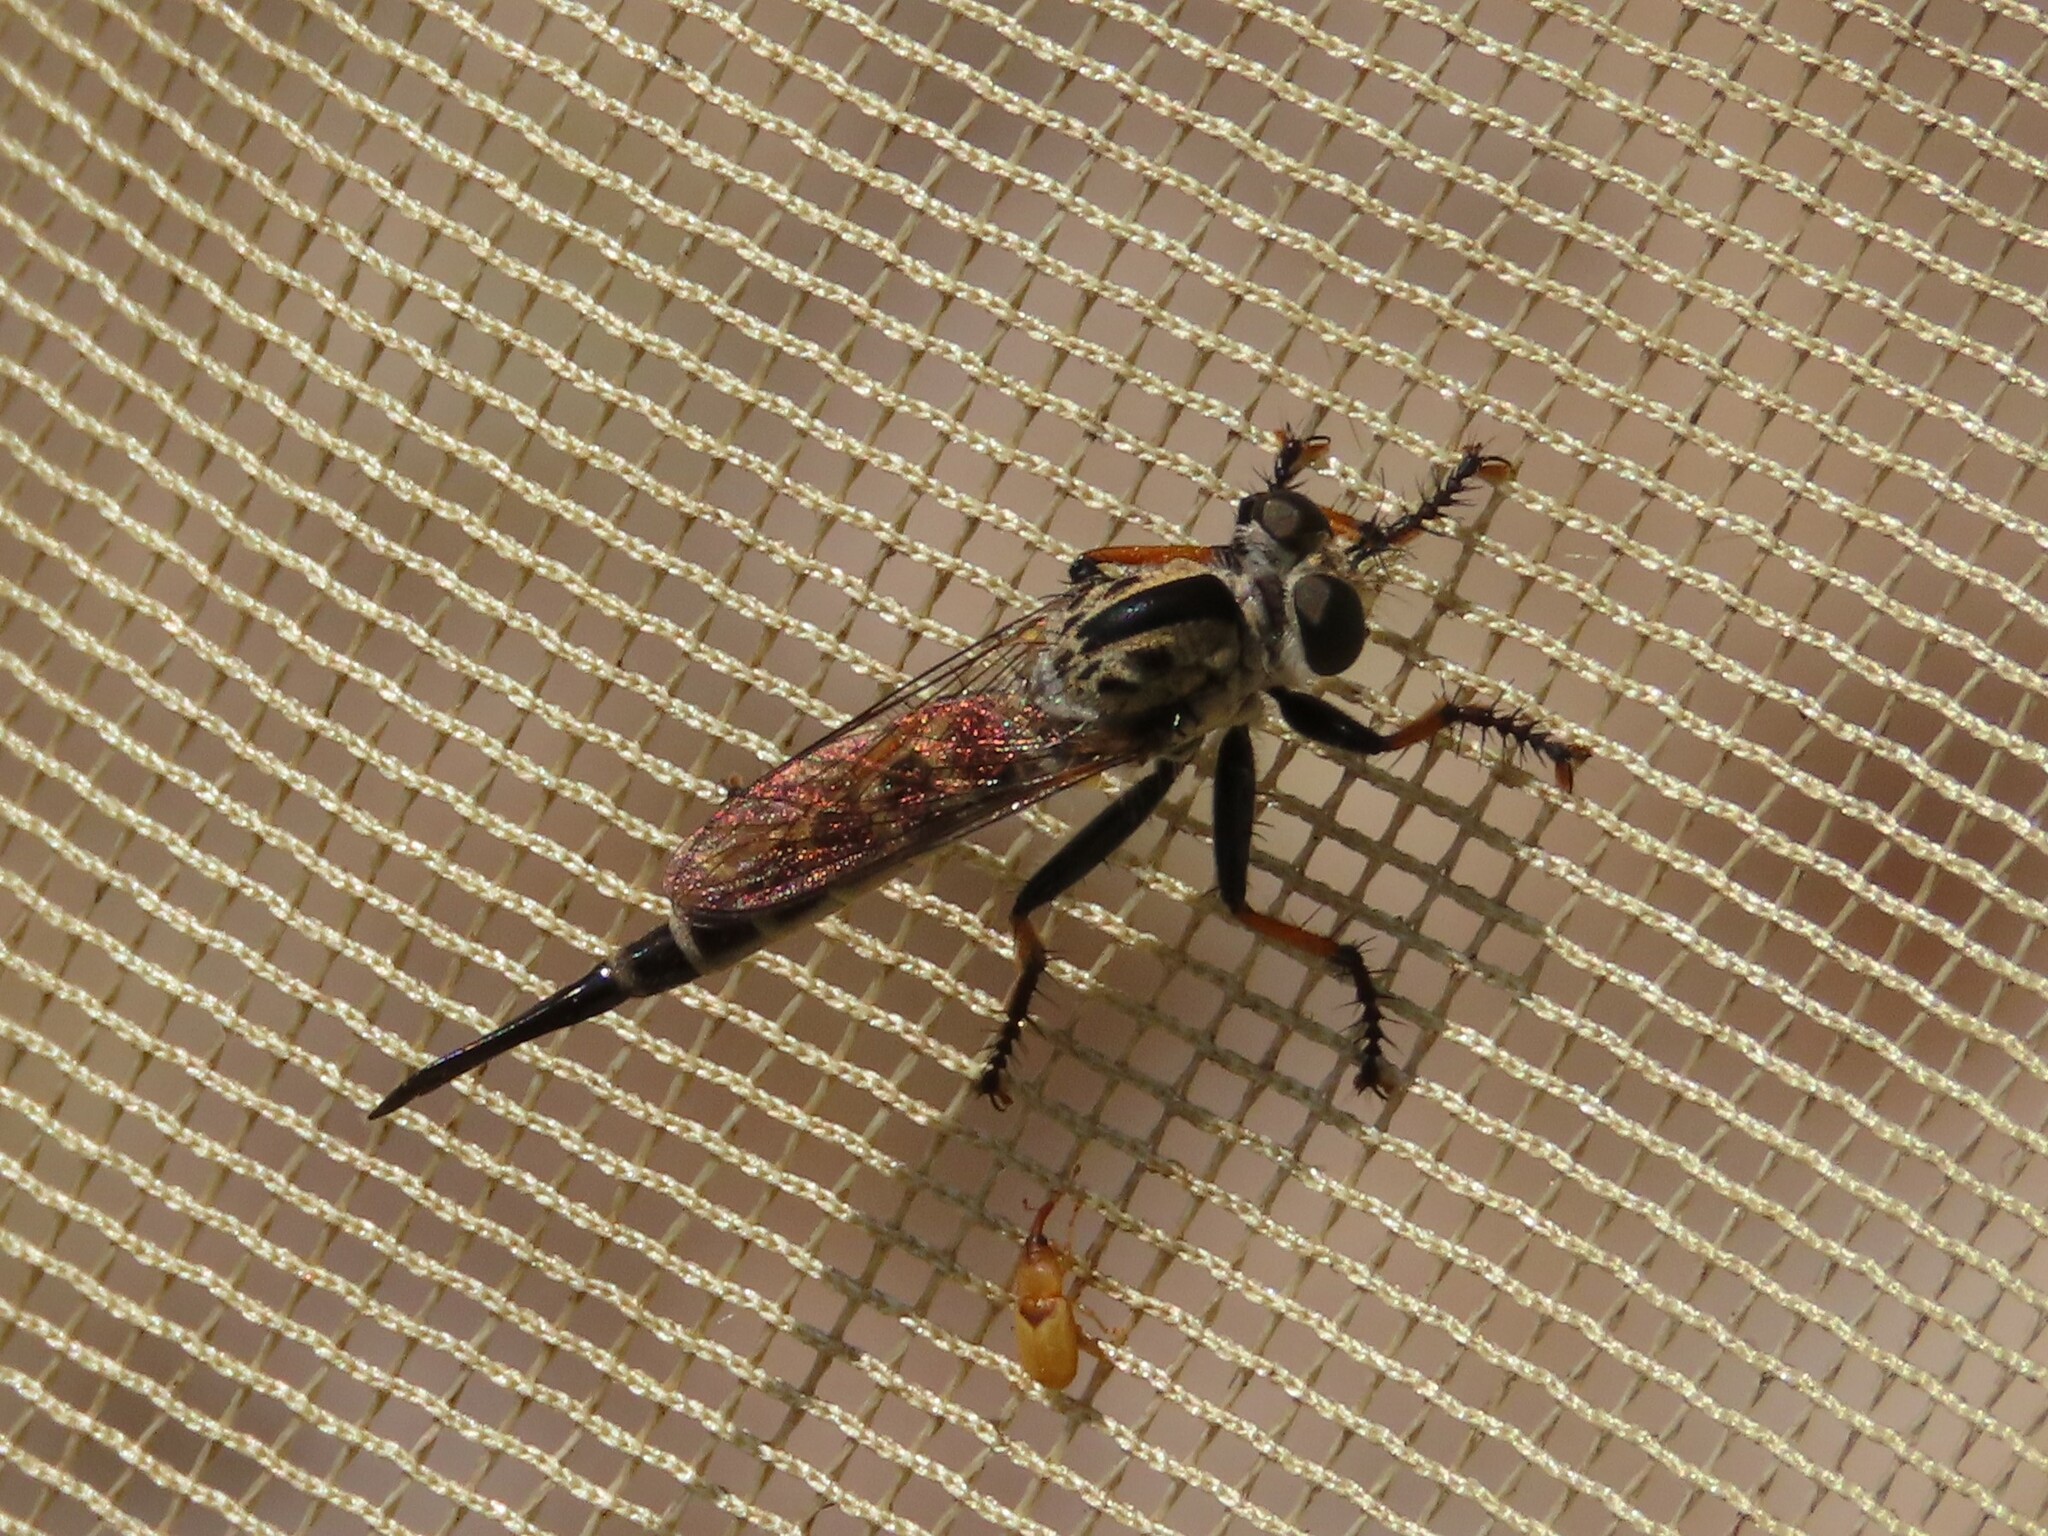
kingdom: Animalia
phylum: Arthropoda
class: Insecta
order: Diptera
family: Asilidae
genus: Efferia
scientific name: Efferia tabescens
